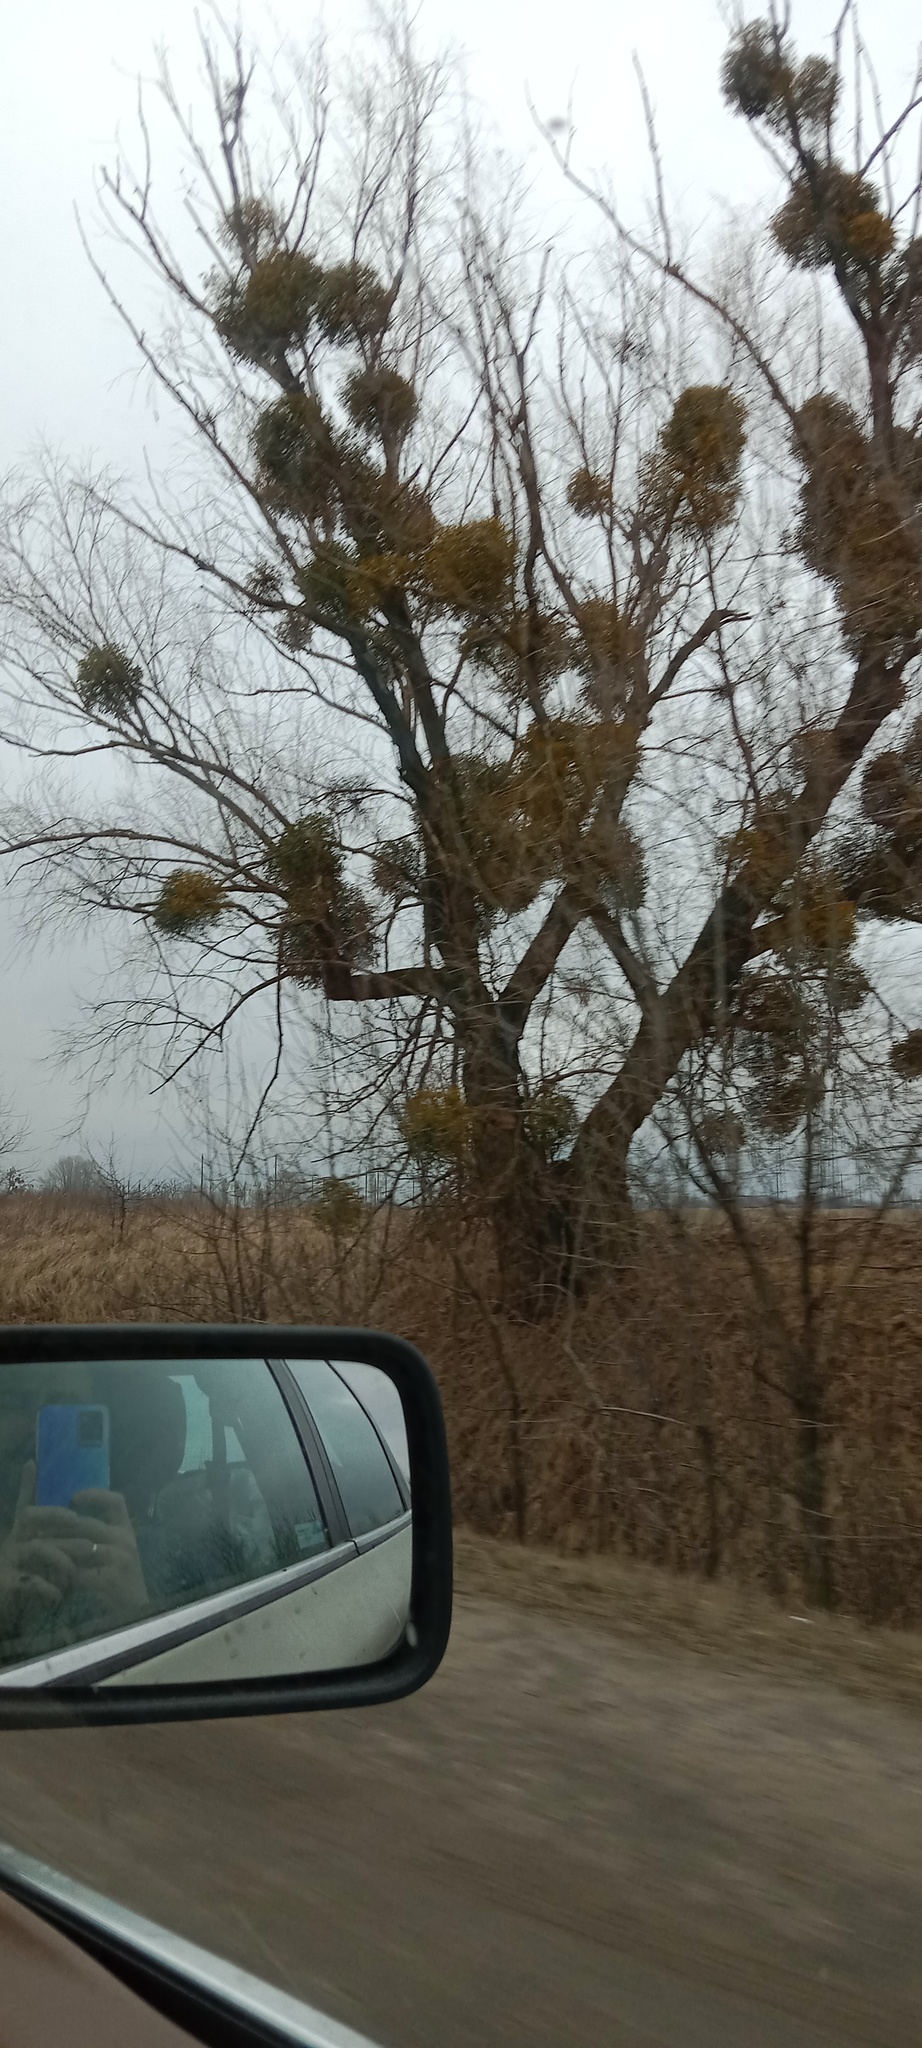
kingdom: Plantae
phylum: Tracheophyta
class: Magnoliopsida
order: Santalales
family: Viscaceae
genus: Viscum
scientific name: Viscum album
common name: Mistletoe
